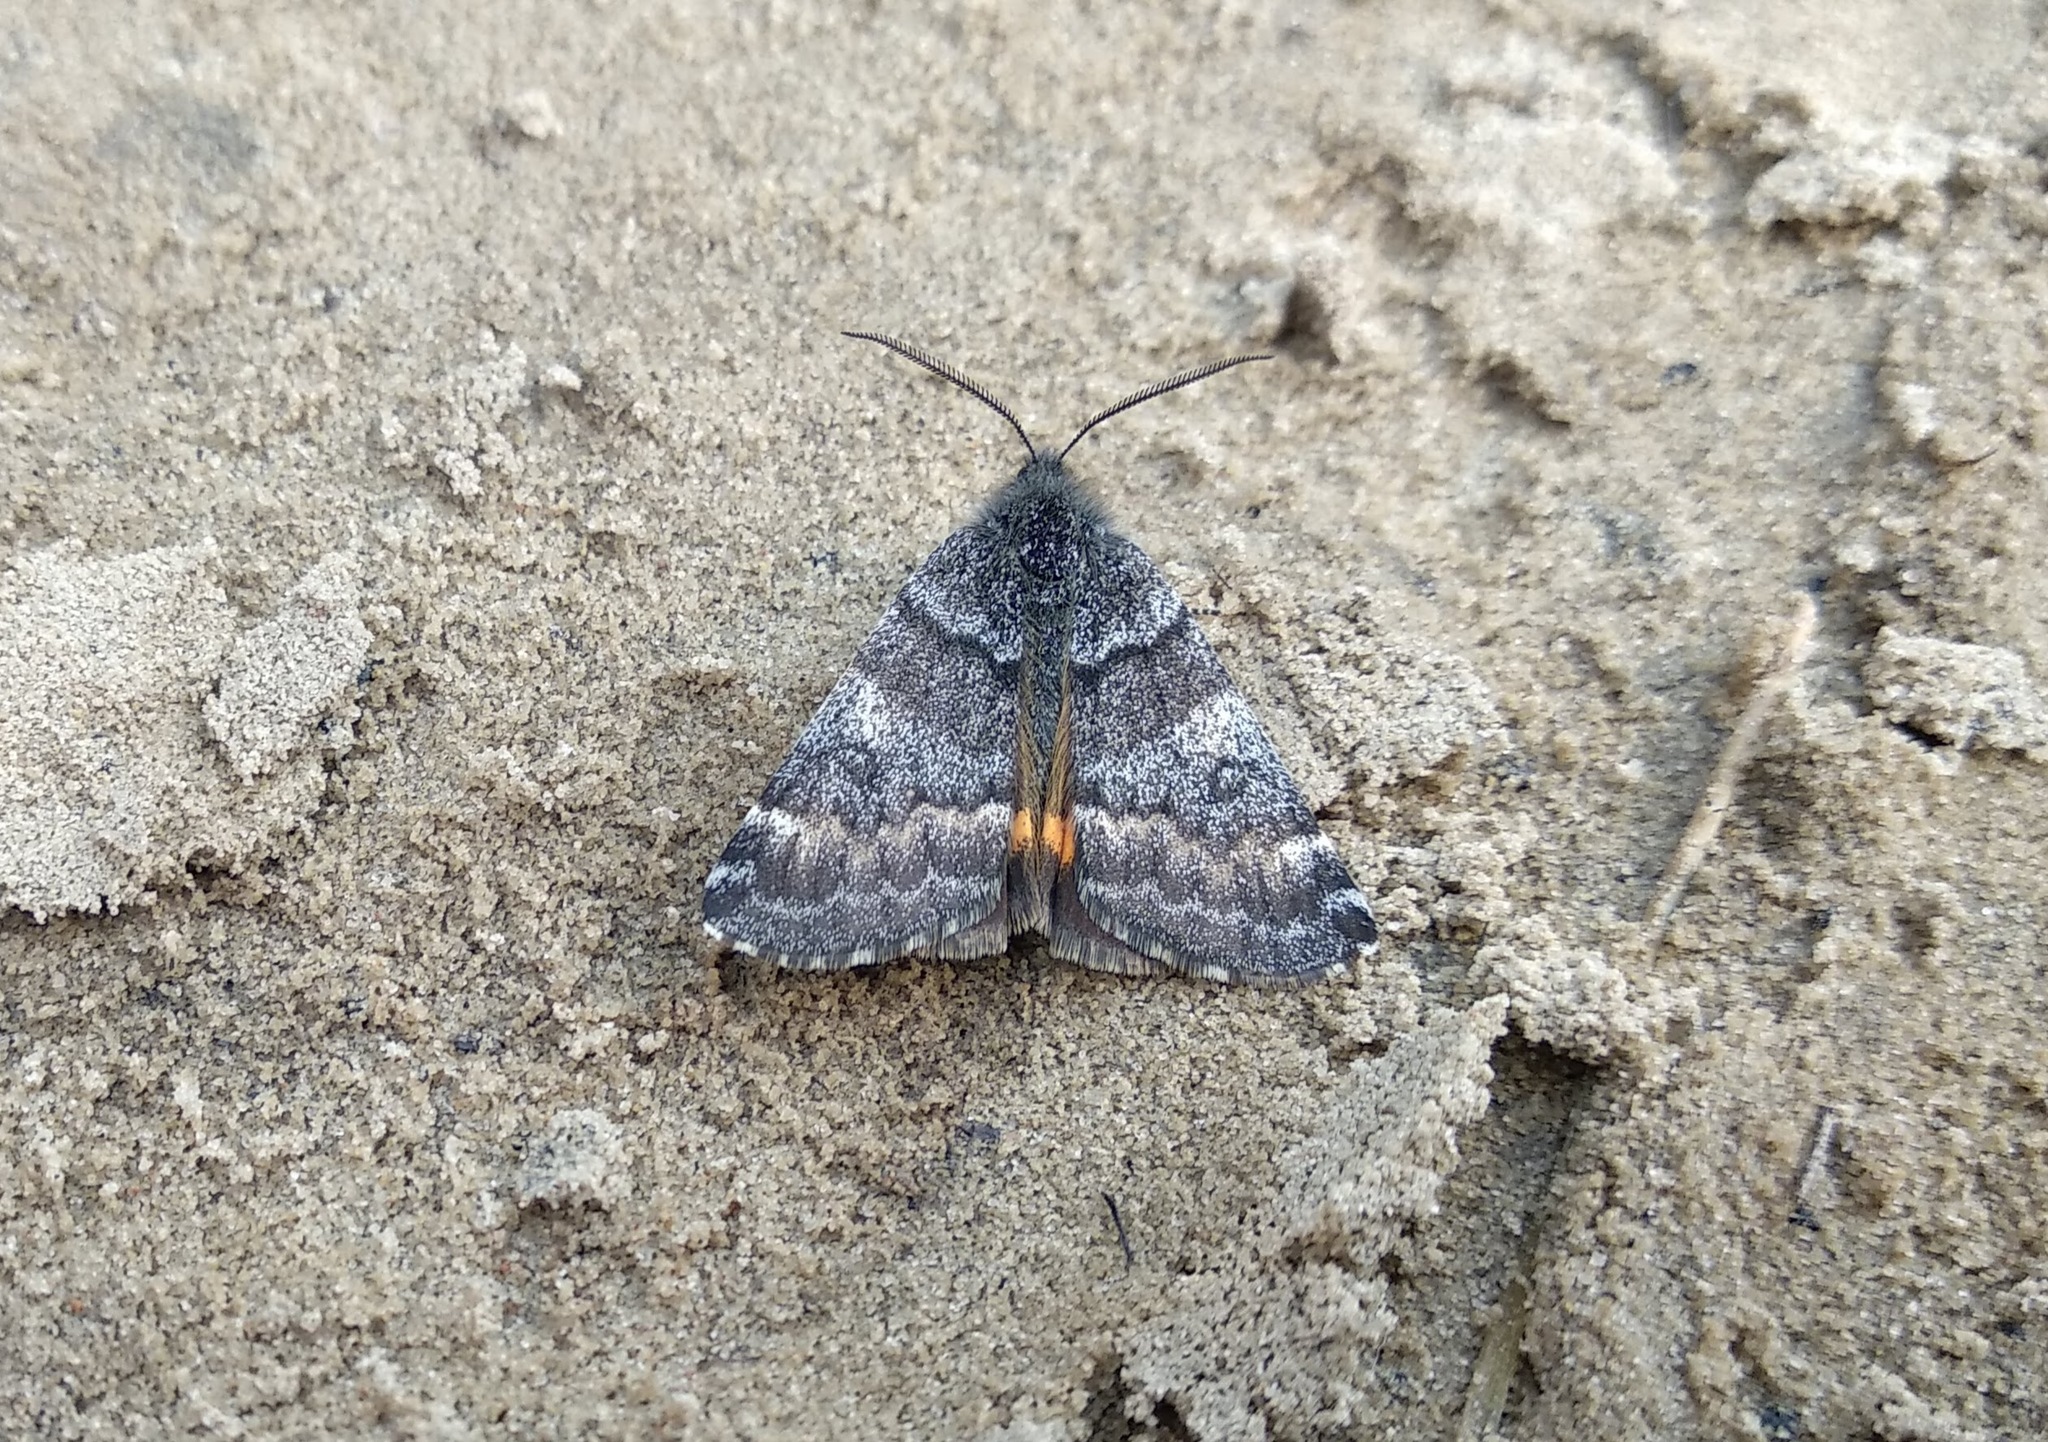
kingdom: Animalia
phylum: Arthropoda
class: Insecta
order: Lepidoptera
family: Geometridae
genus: Archiearis
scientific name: Archiearis notha
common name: Light orange underwing
